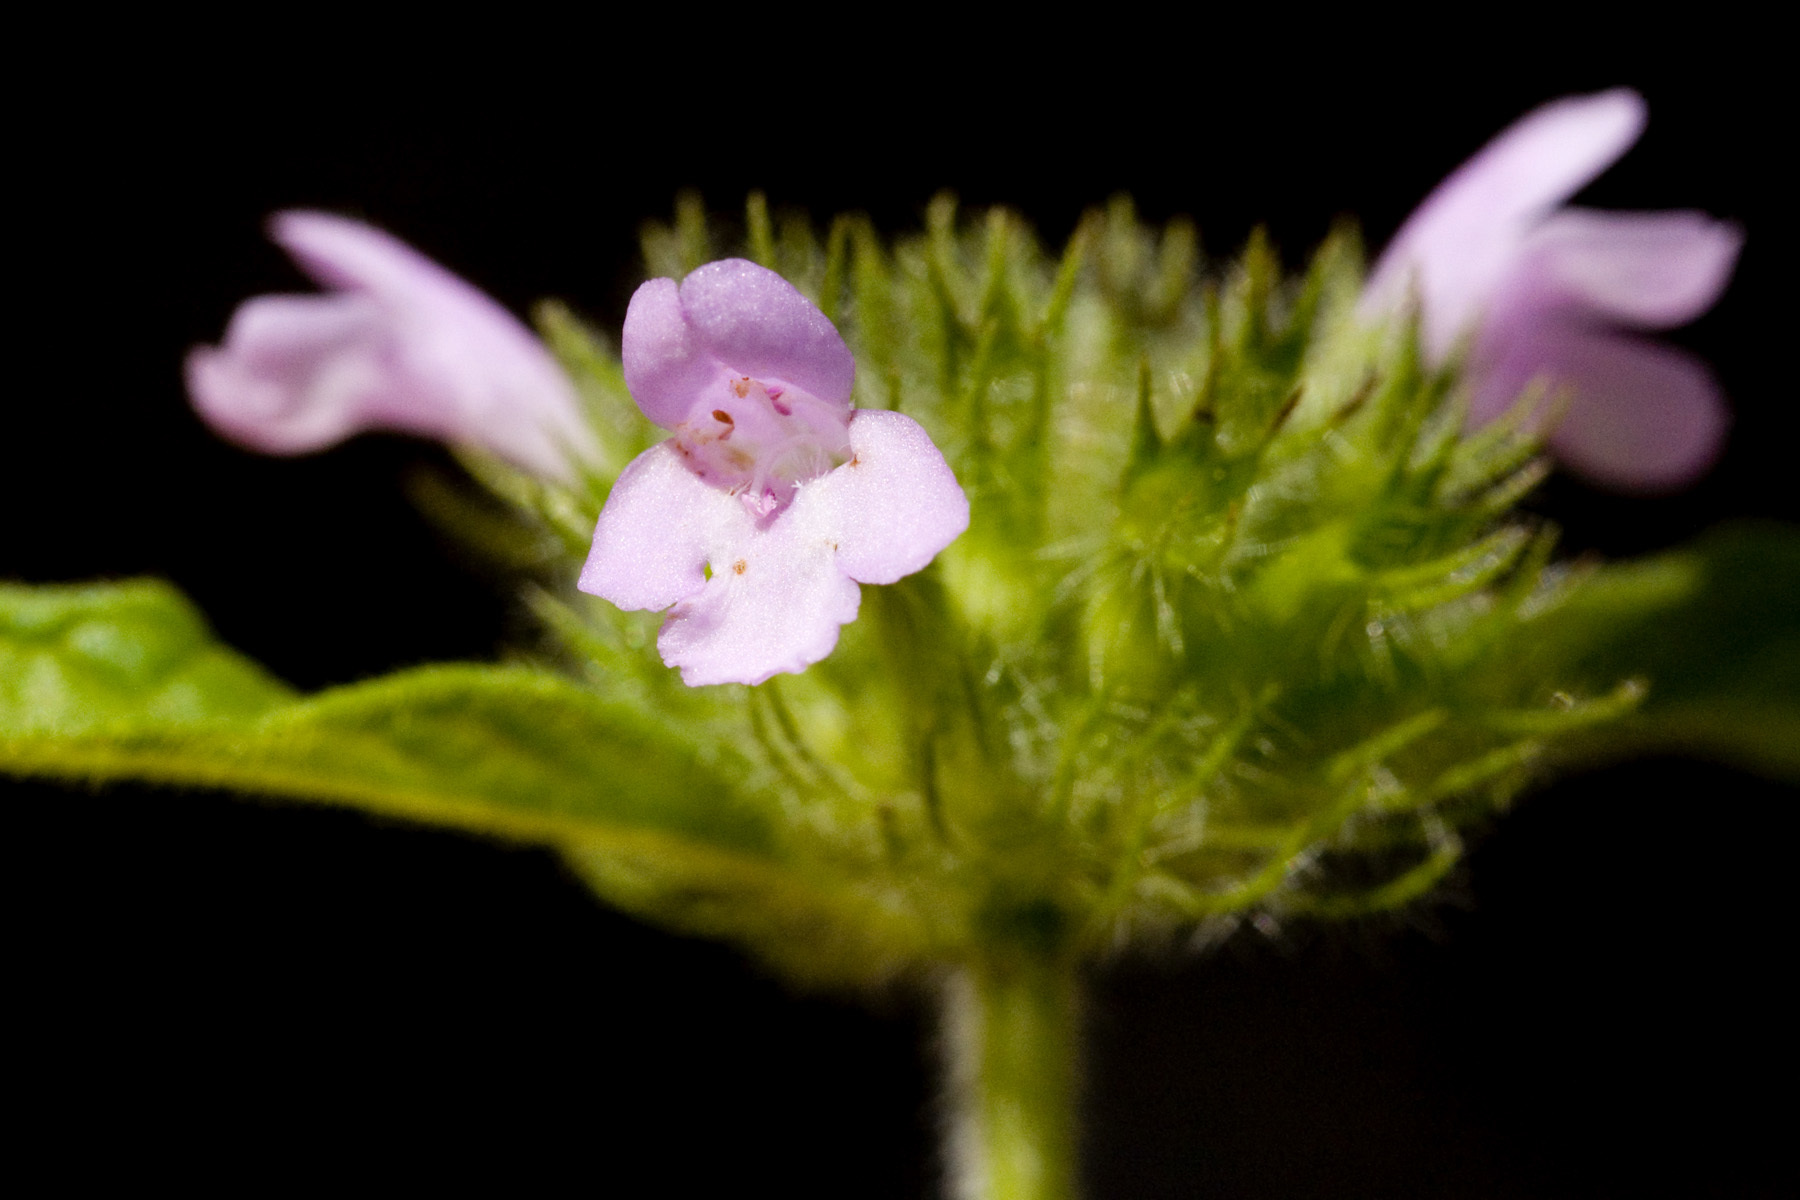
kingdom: Plantae
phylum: Tracheophyta
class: Magnoliopsida
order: Lamiales
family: Lamiaceae
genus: Clinopodium
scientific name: Clinopodium vulgare
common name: Wild basil
